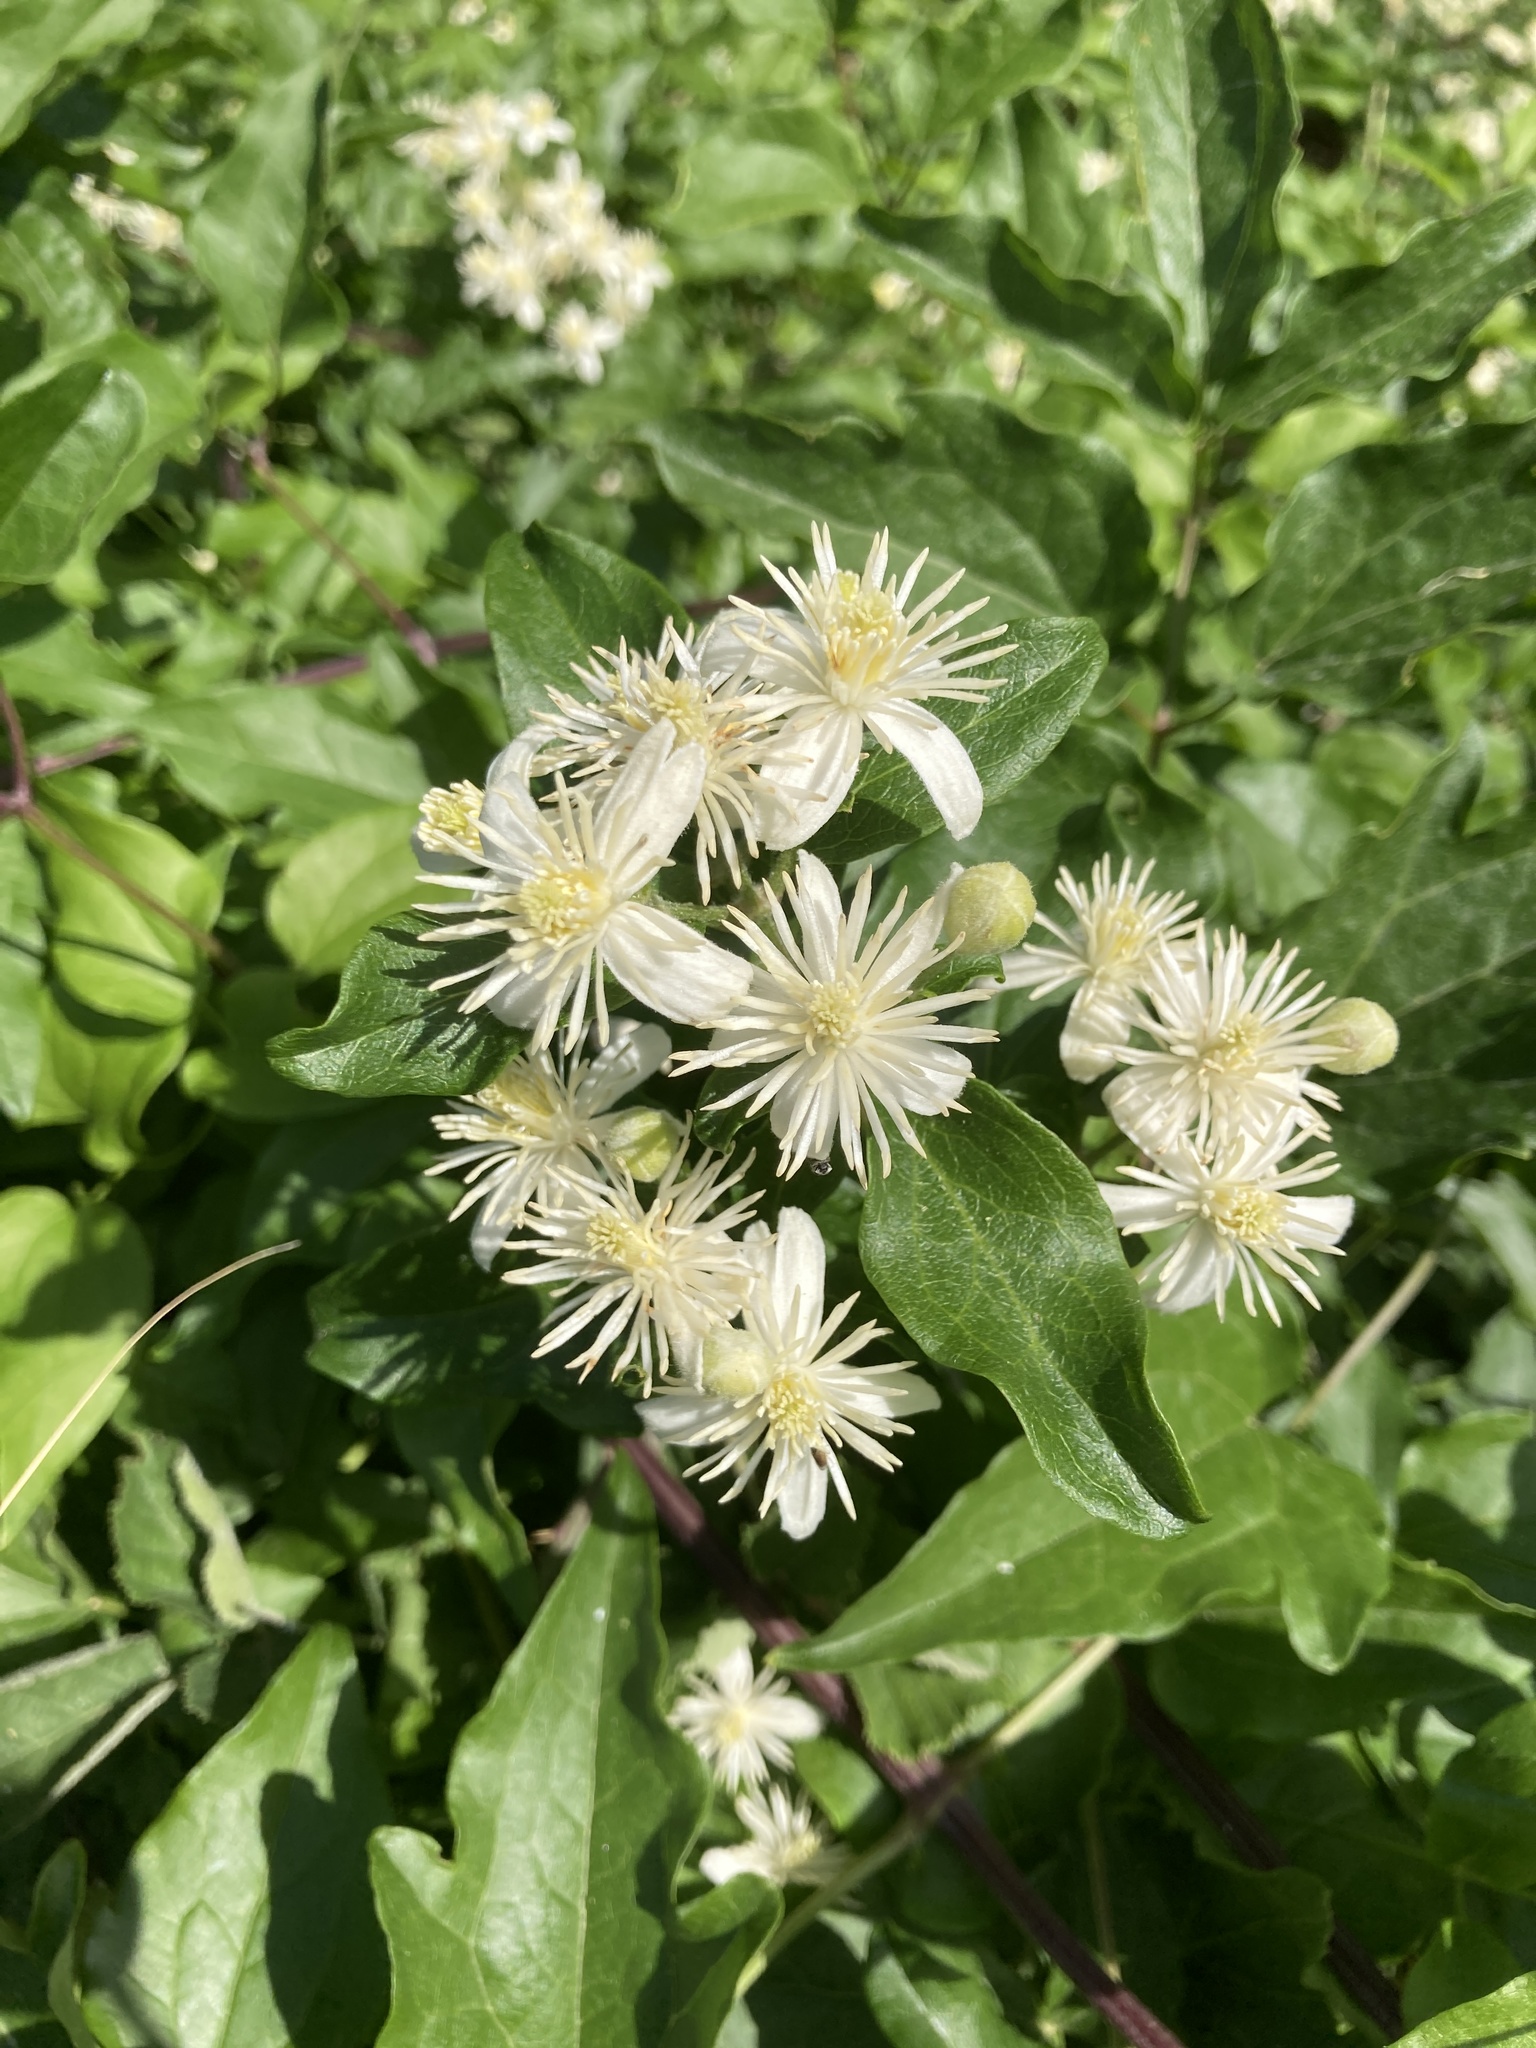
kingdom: Plantae
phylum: Tracheophyta
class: Magnoliopsida
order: Ranunculales
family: Ranunculaceae
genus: Clematis
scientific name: Clematis vitalba
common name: Evergreen clematis
